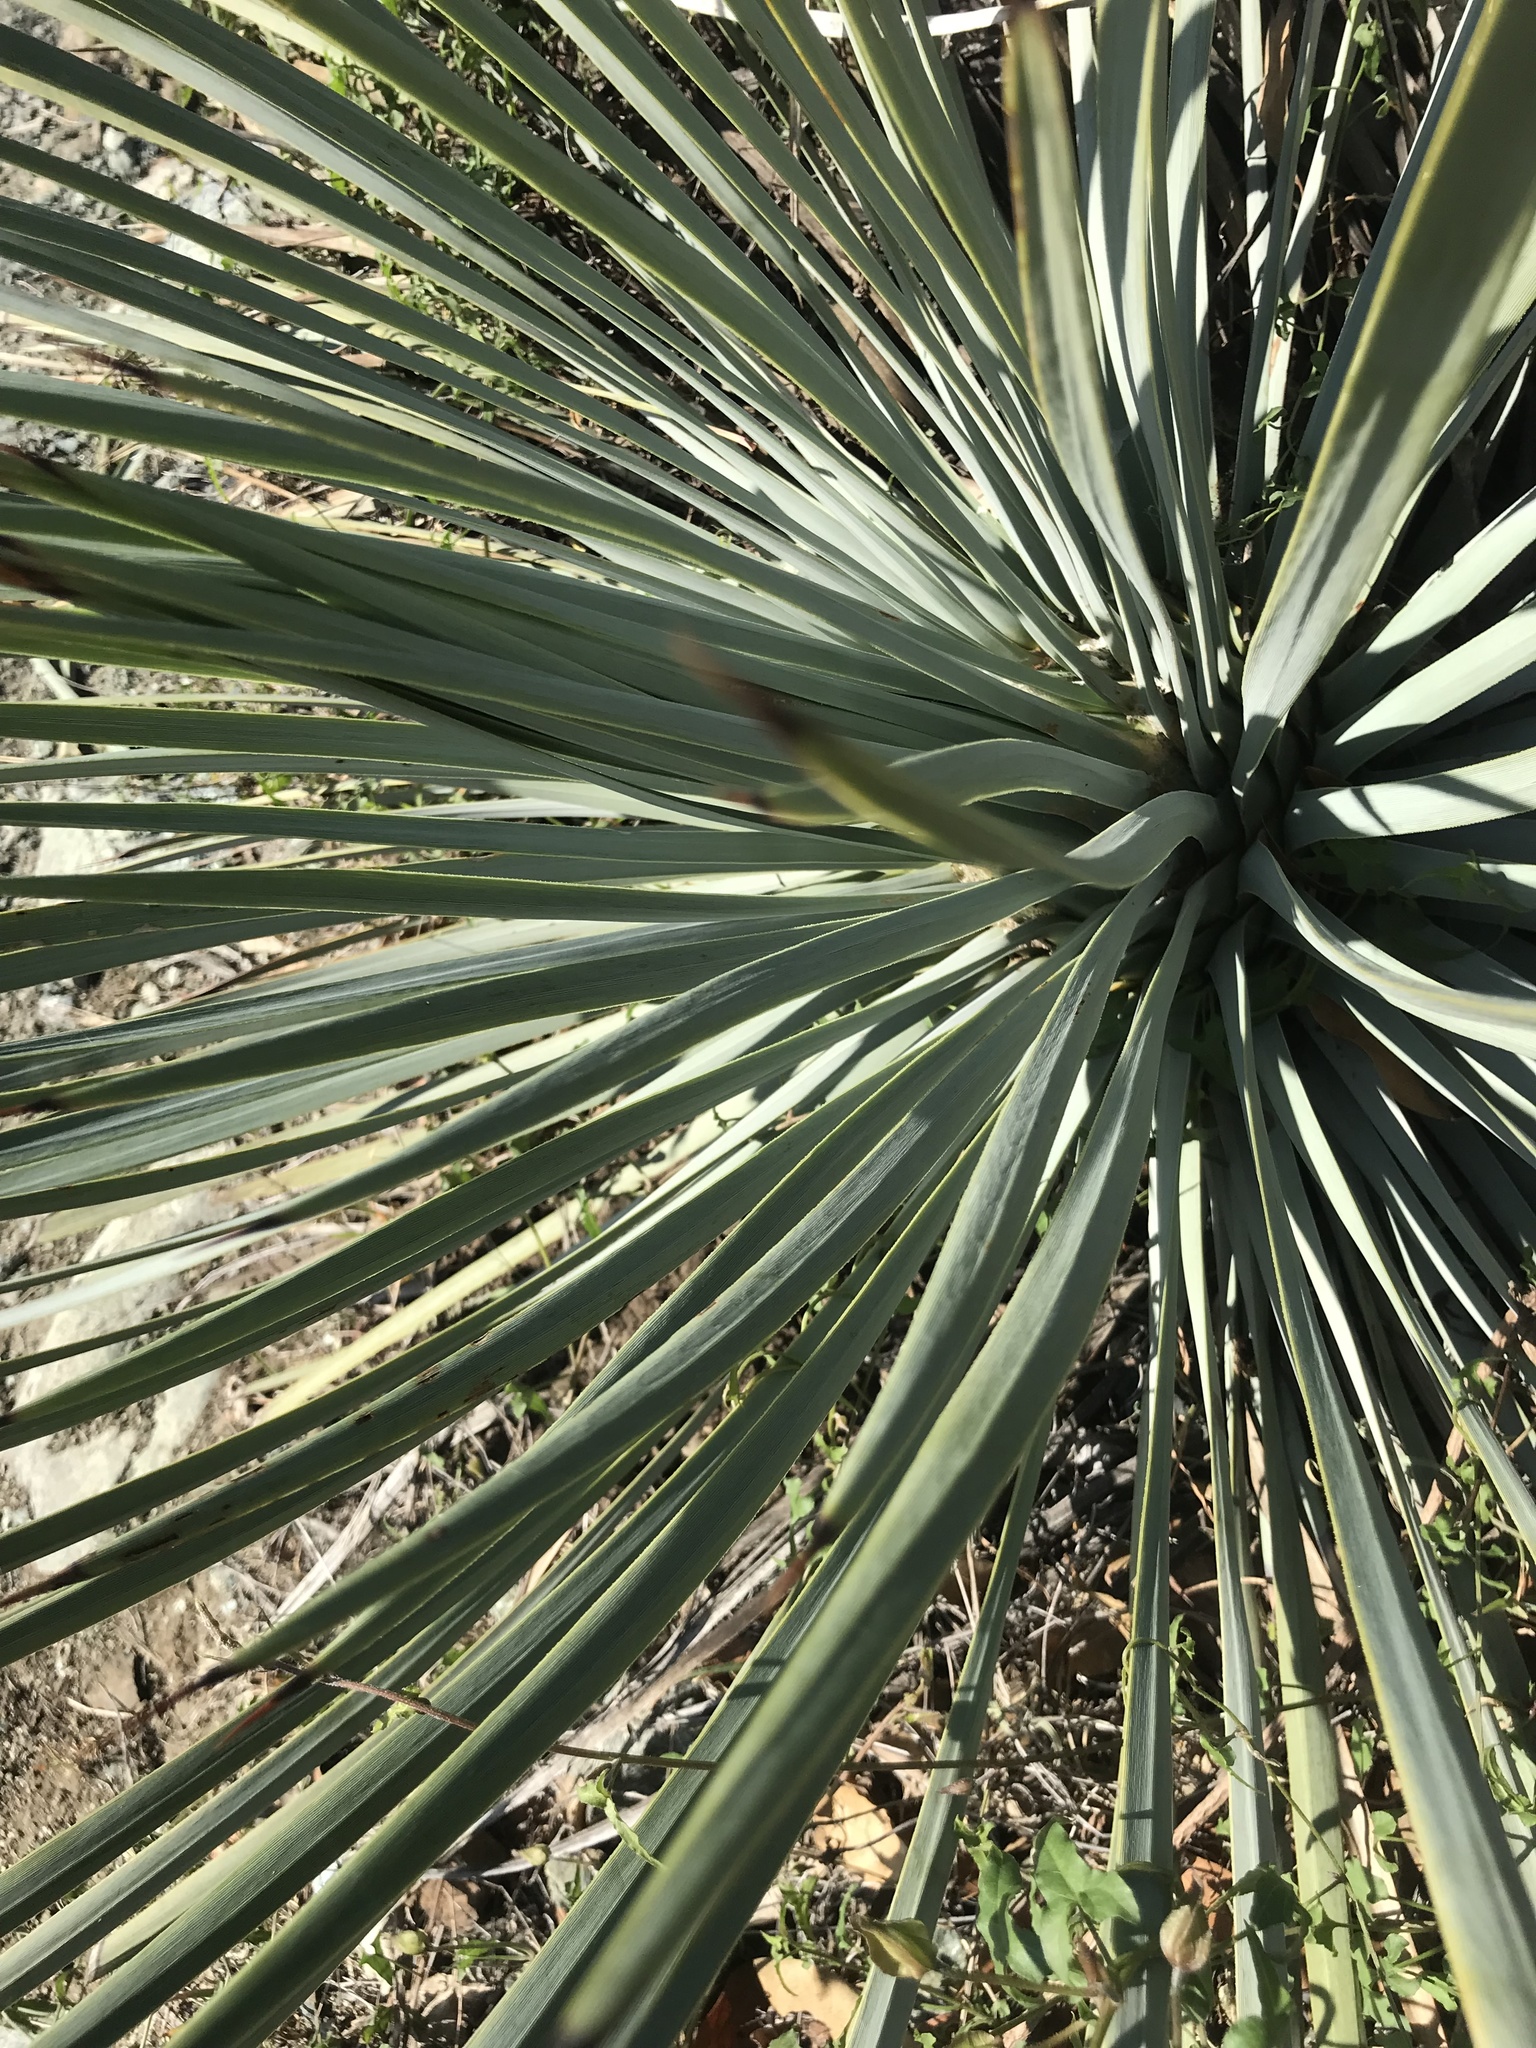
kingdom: Plantae
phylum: Tracheophyta
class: Liliopsida
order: Asparagales
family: Asparagaceae
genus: Hesperoyucca
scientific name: Hesperoyucca whipplei
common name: Our lord's-candle
